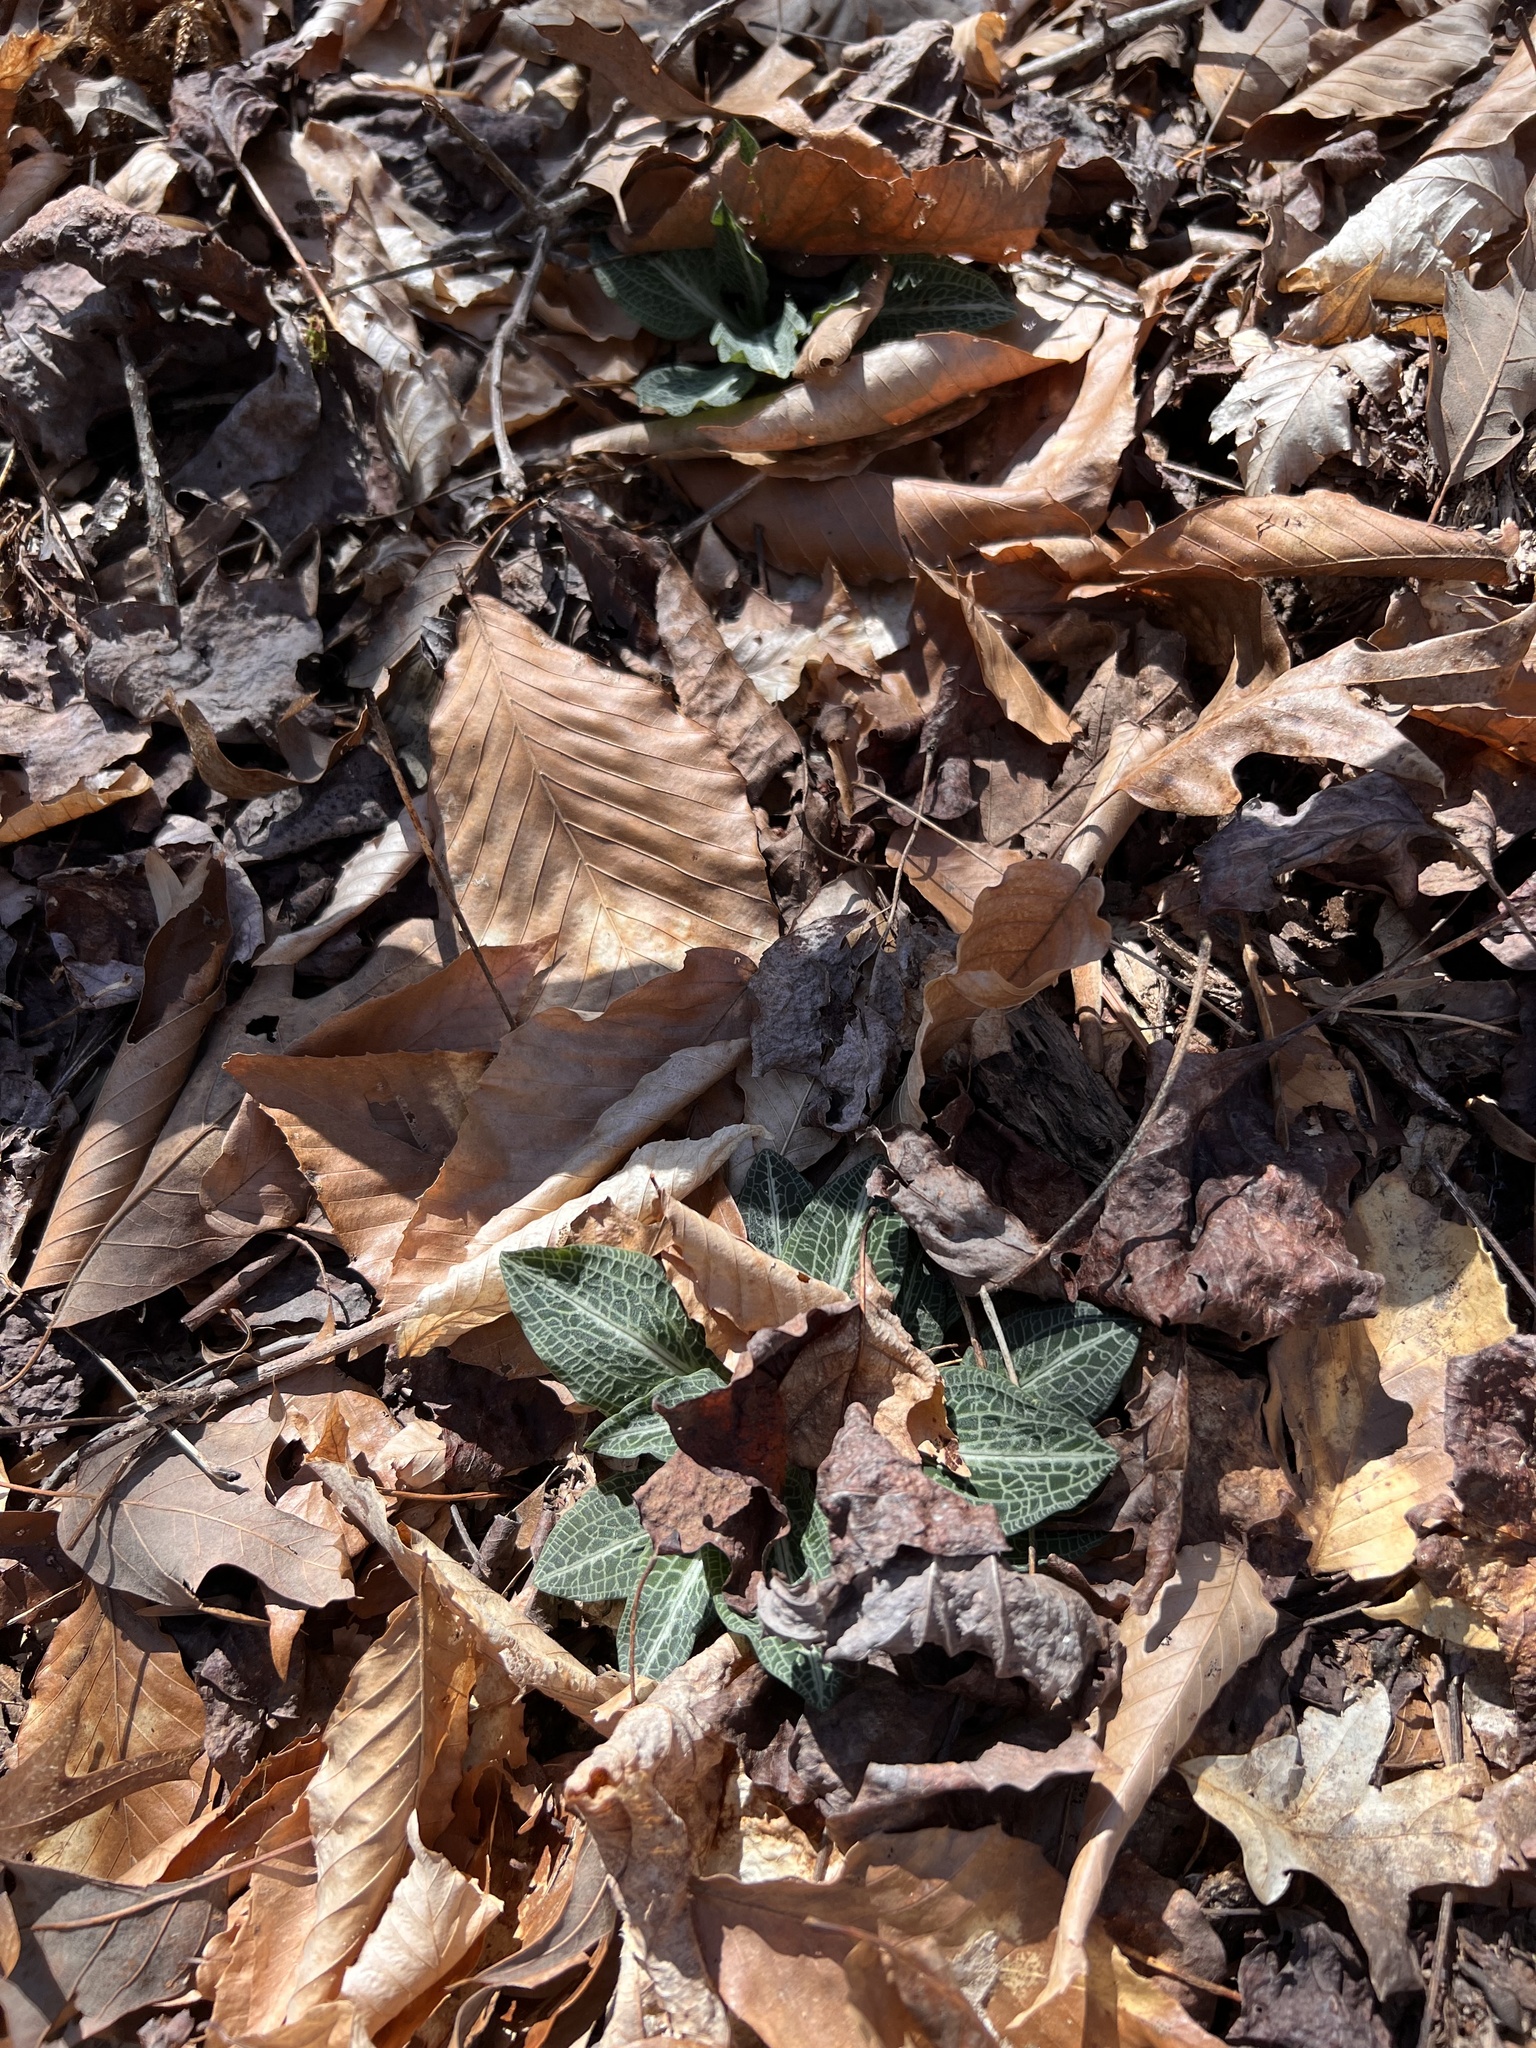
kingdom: Plantae
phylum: Tracheophyta
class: Liliopsida
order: Asparagales
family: Orchidaceae
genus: Goodyera
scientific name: Goodyera pubescens
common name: Downy rattlesnake-plantain
